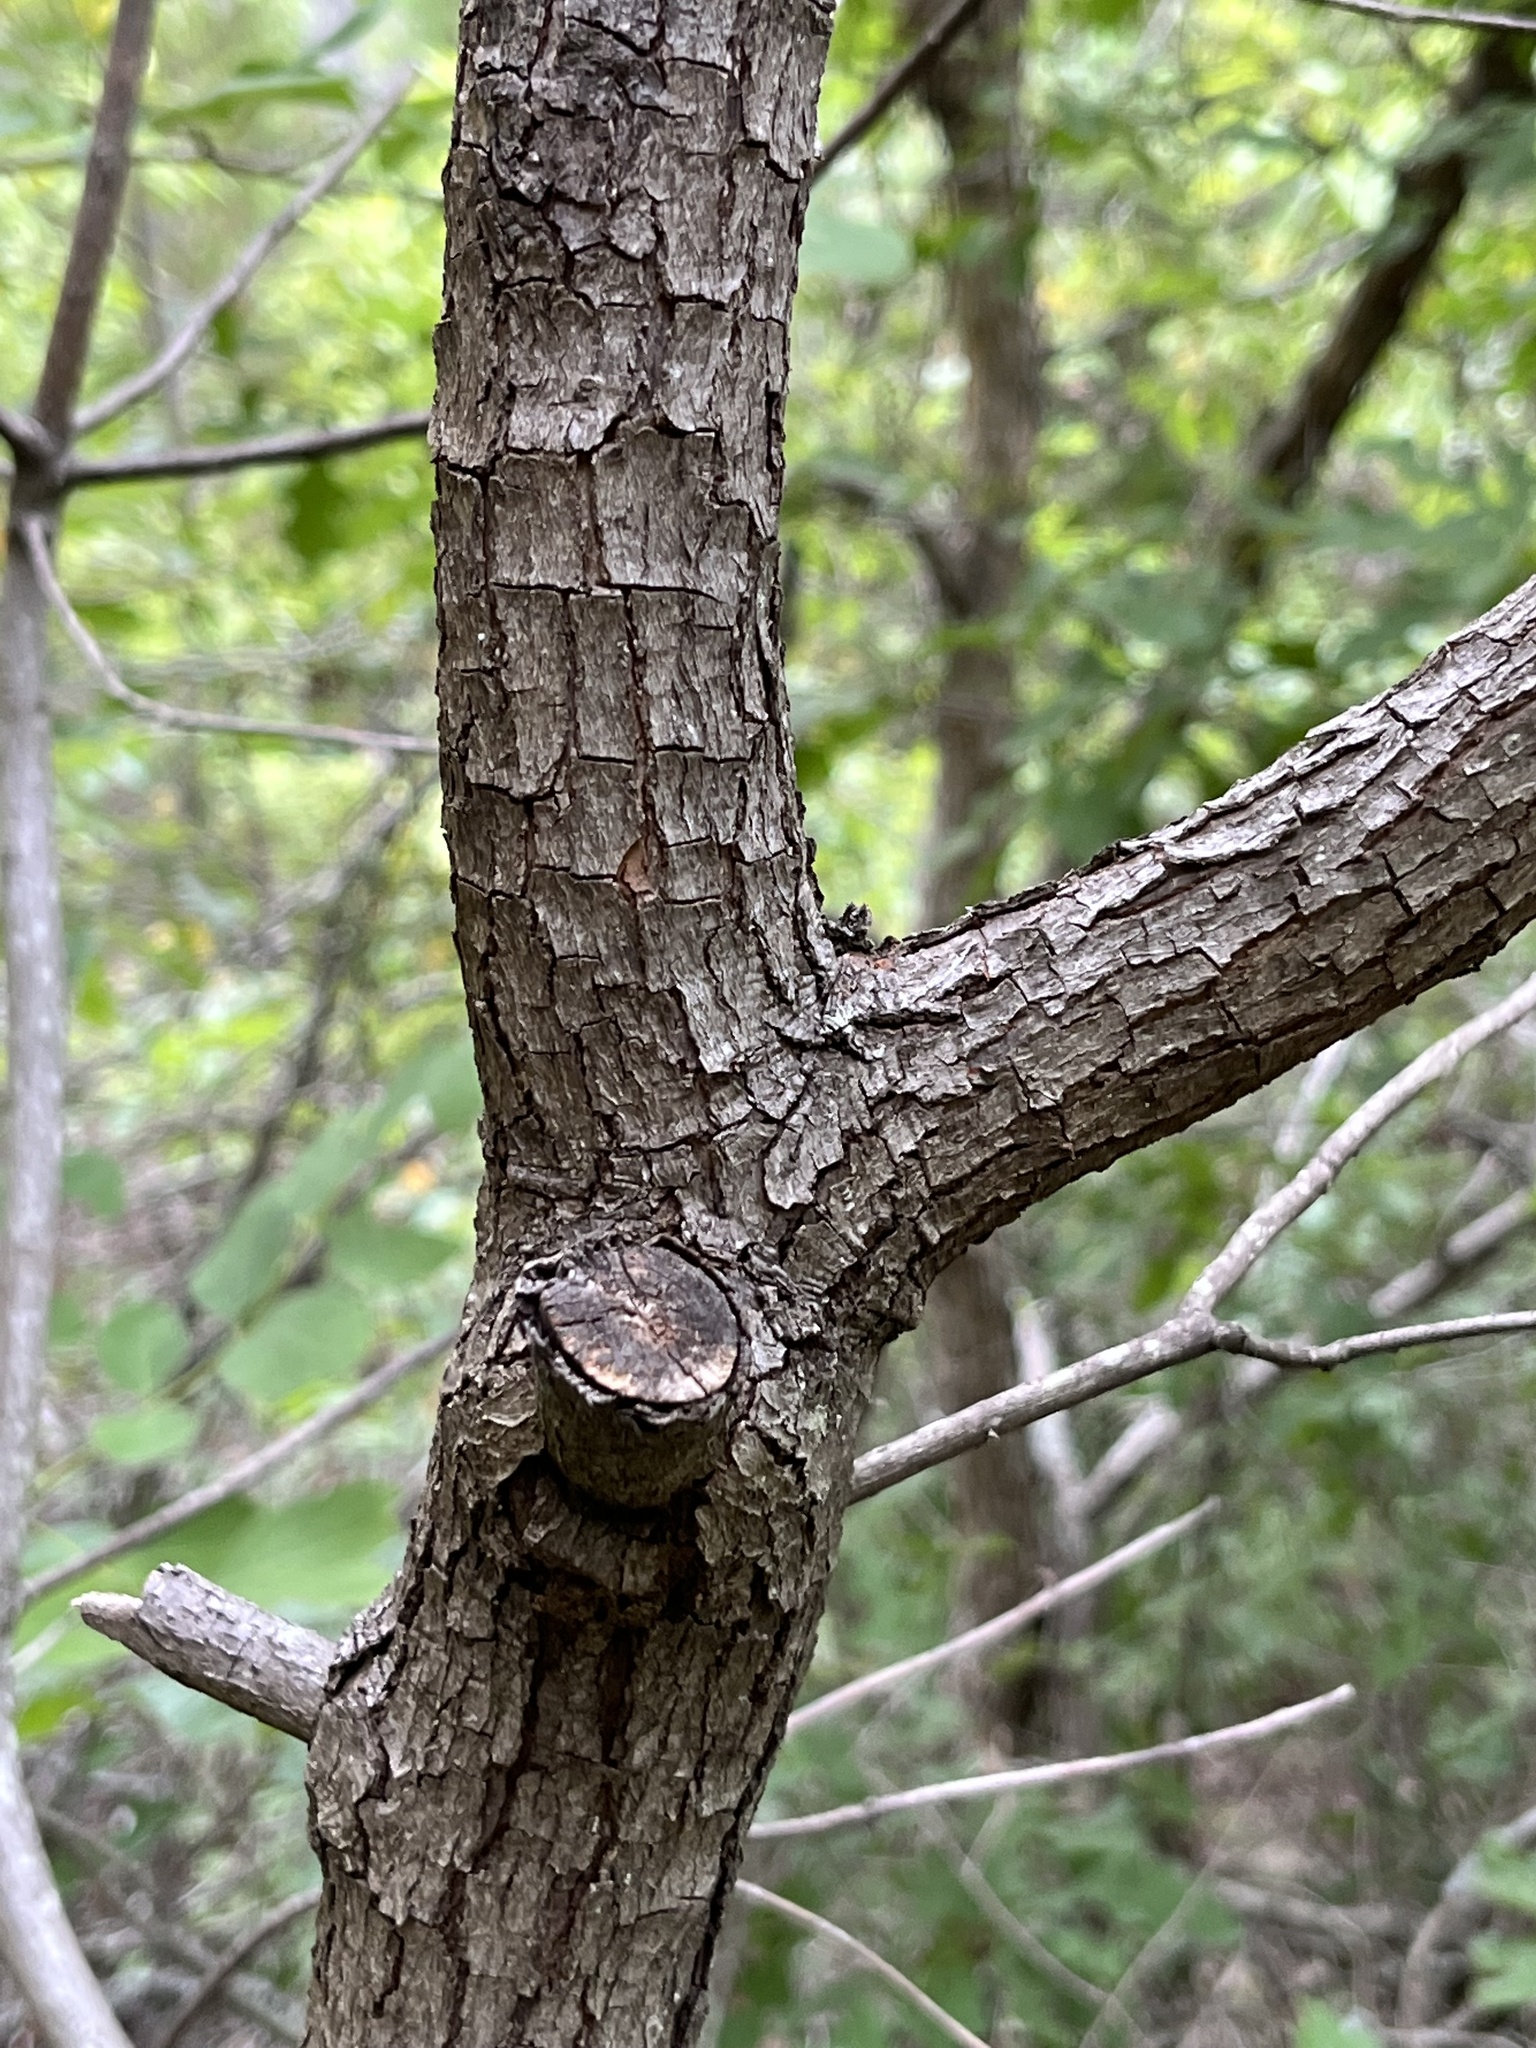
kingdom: Plantae
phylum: Tracheophyta
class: Magnoliopsida
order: Laurales
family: Lauraceae
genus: Persea
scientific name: Persea borbonia
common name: Redbay
